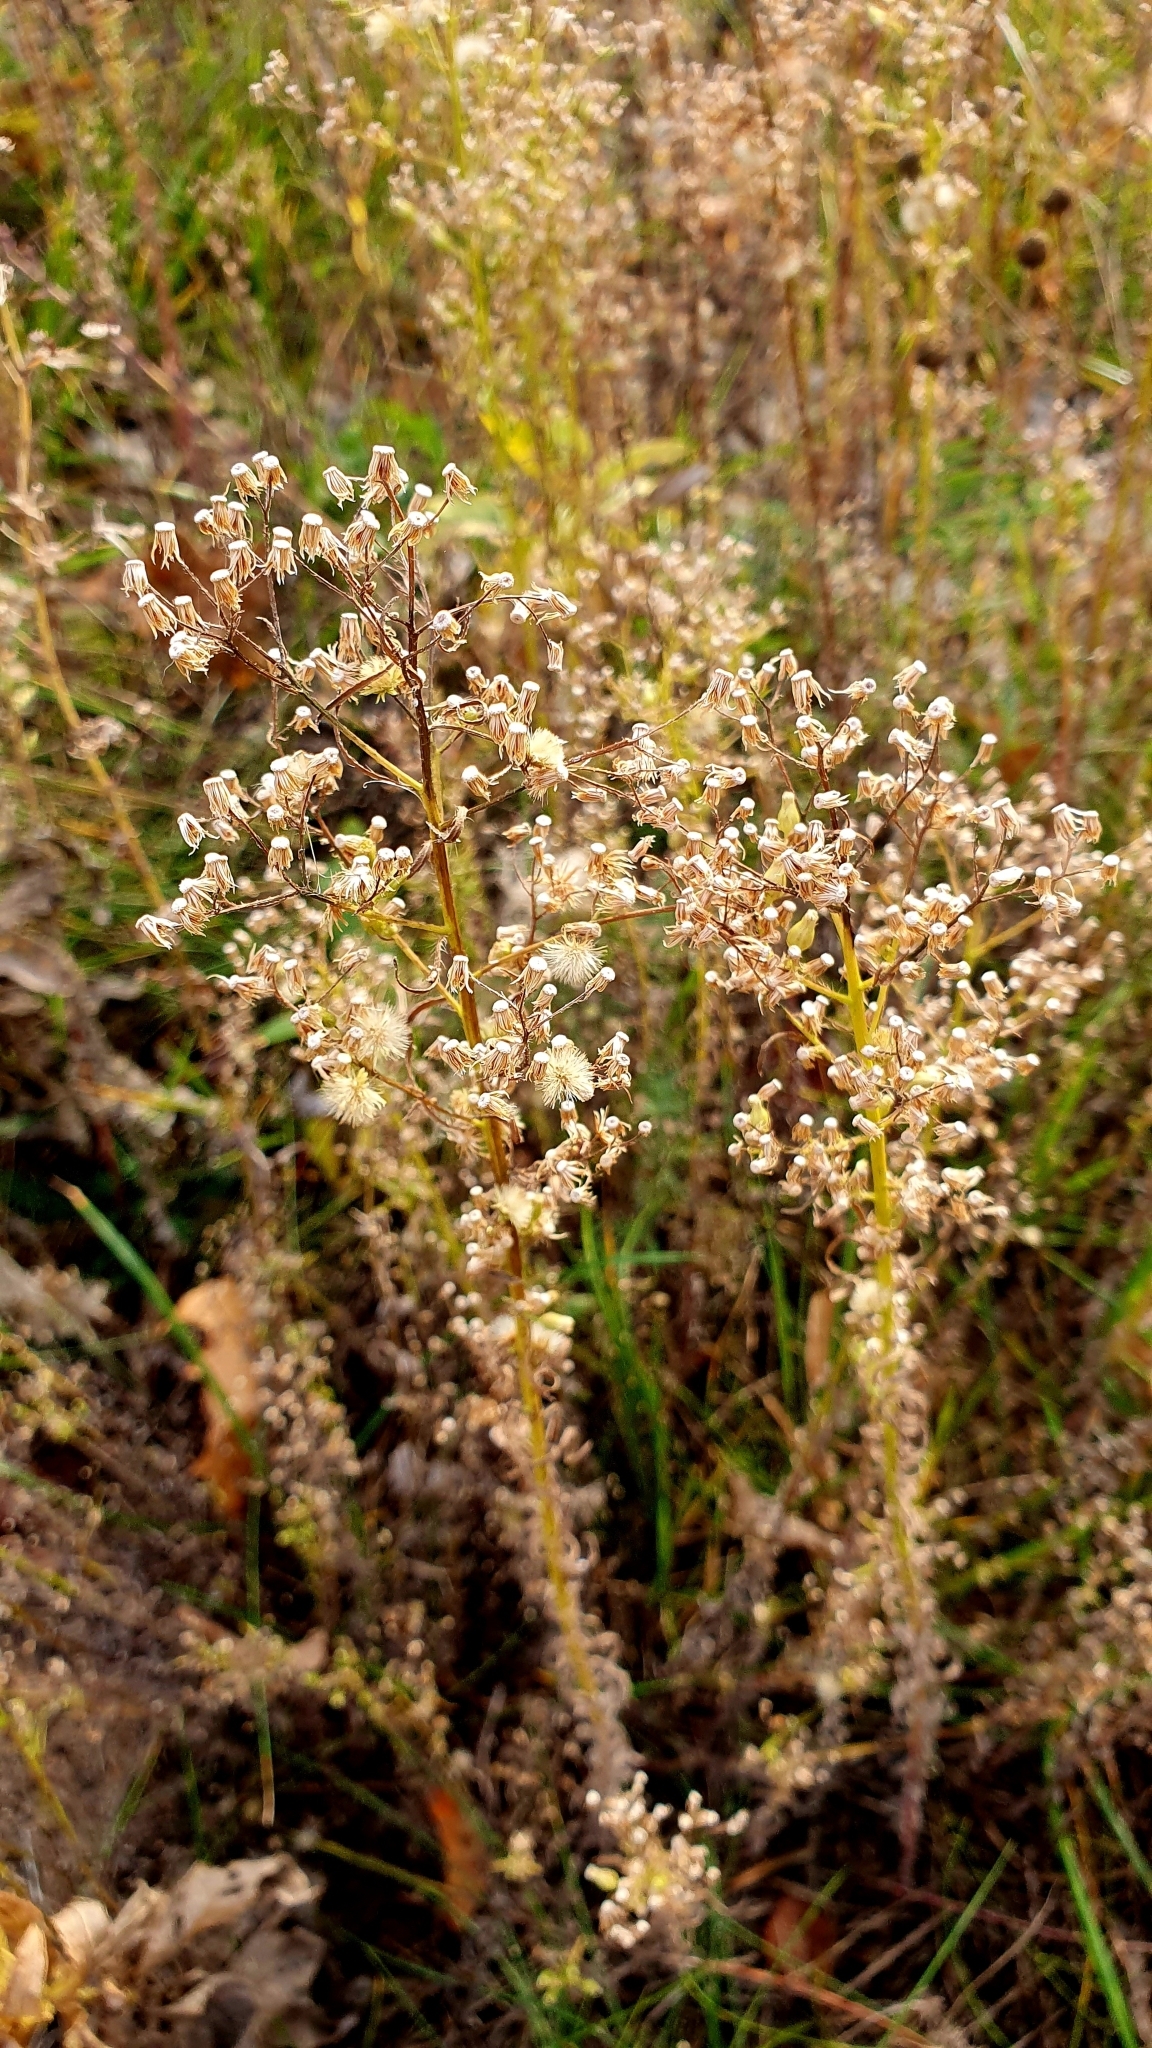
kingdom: Plantae
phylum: Tracheophyta
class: Magnoliopsida
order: Asterales
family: Asteraceae
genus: Erigeron
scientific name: Erigeron canadensis
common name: Canadian fleabane
